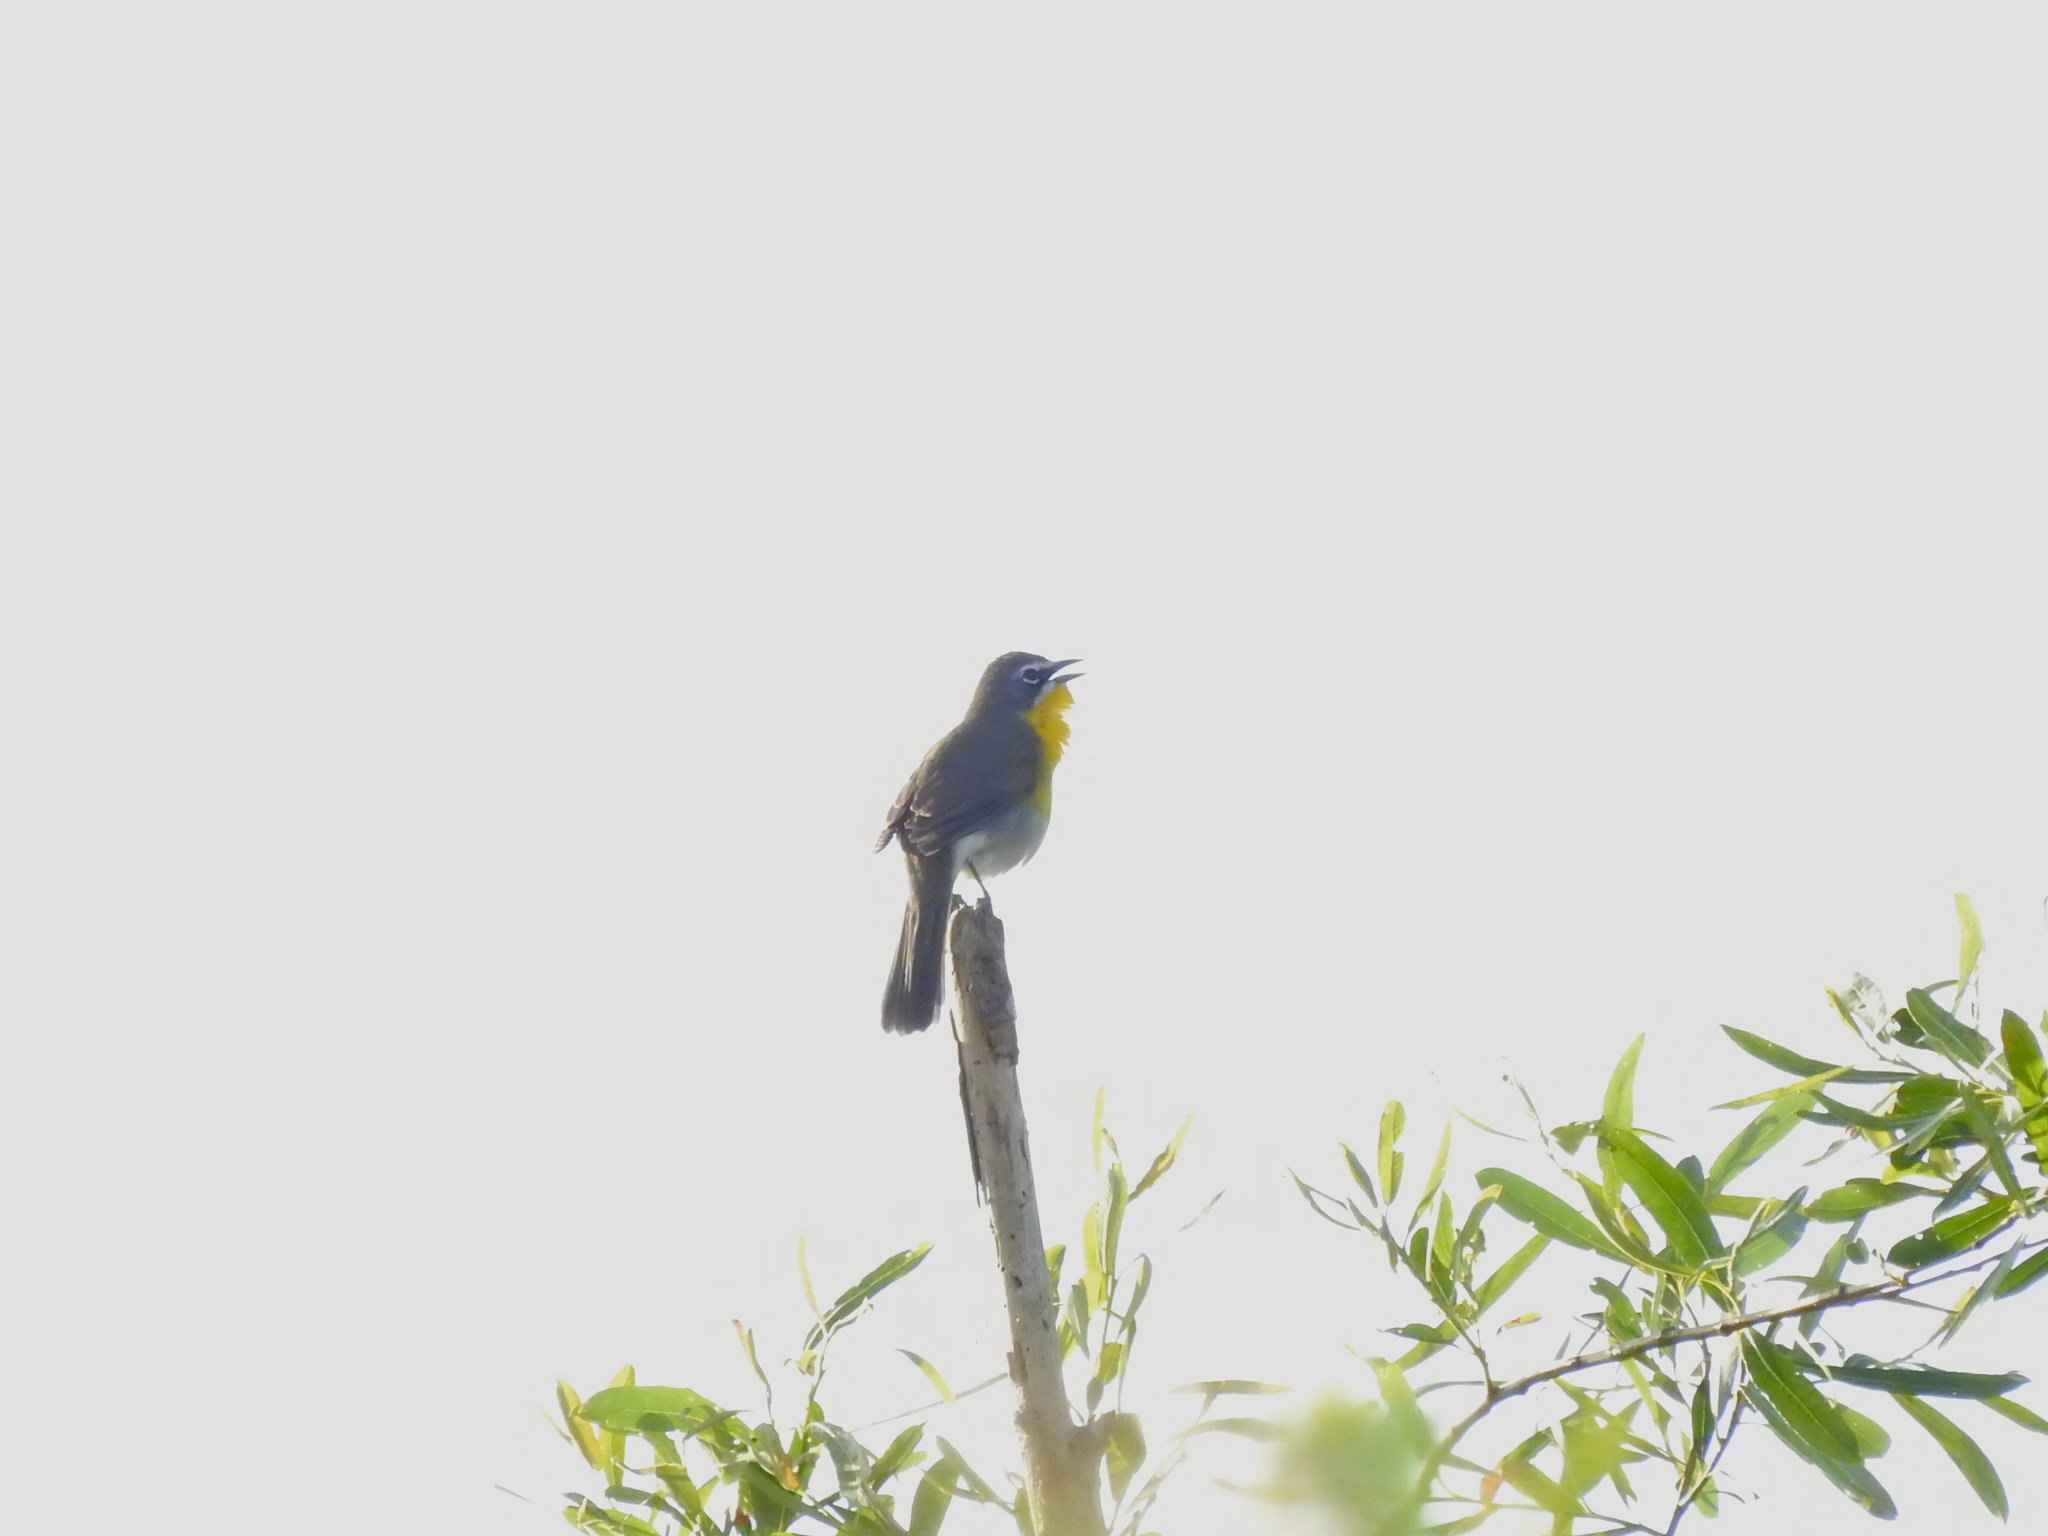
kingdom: Animalia
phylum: Chordata
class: Aves
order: Passeriformes
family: Parulidae
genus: Icteria
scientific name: Icteria virens
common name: Yellow-breasted chat
